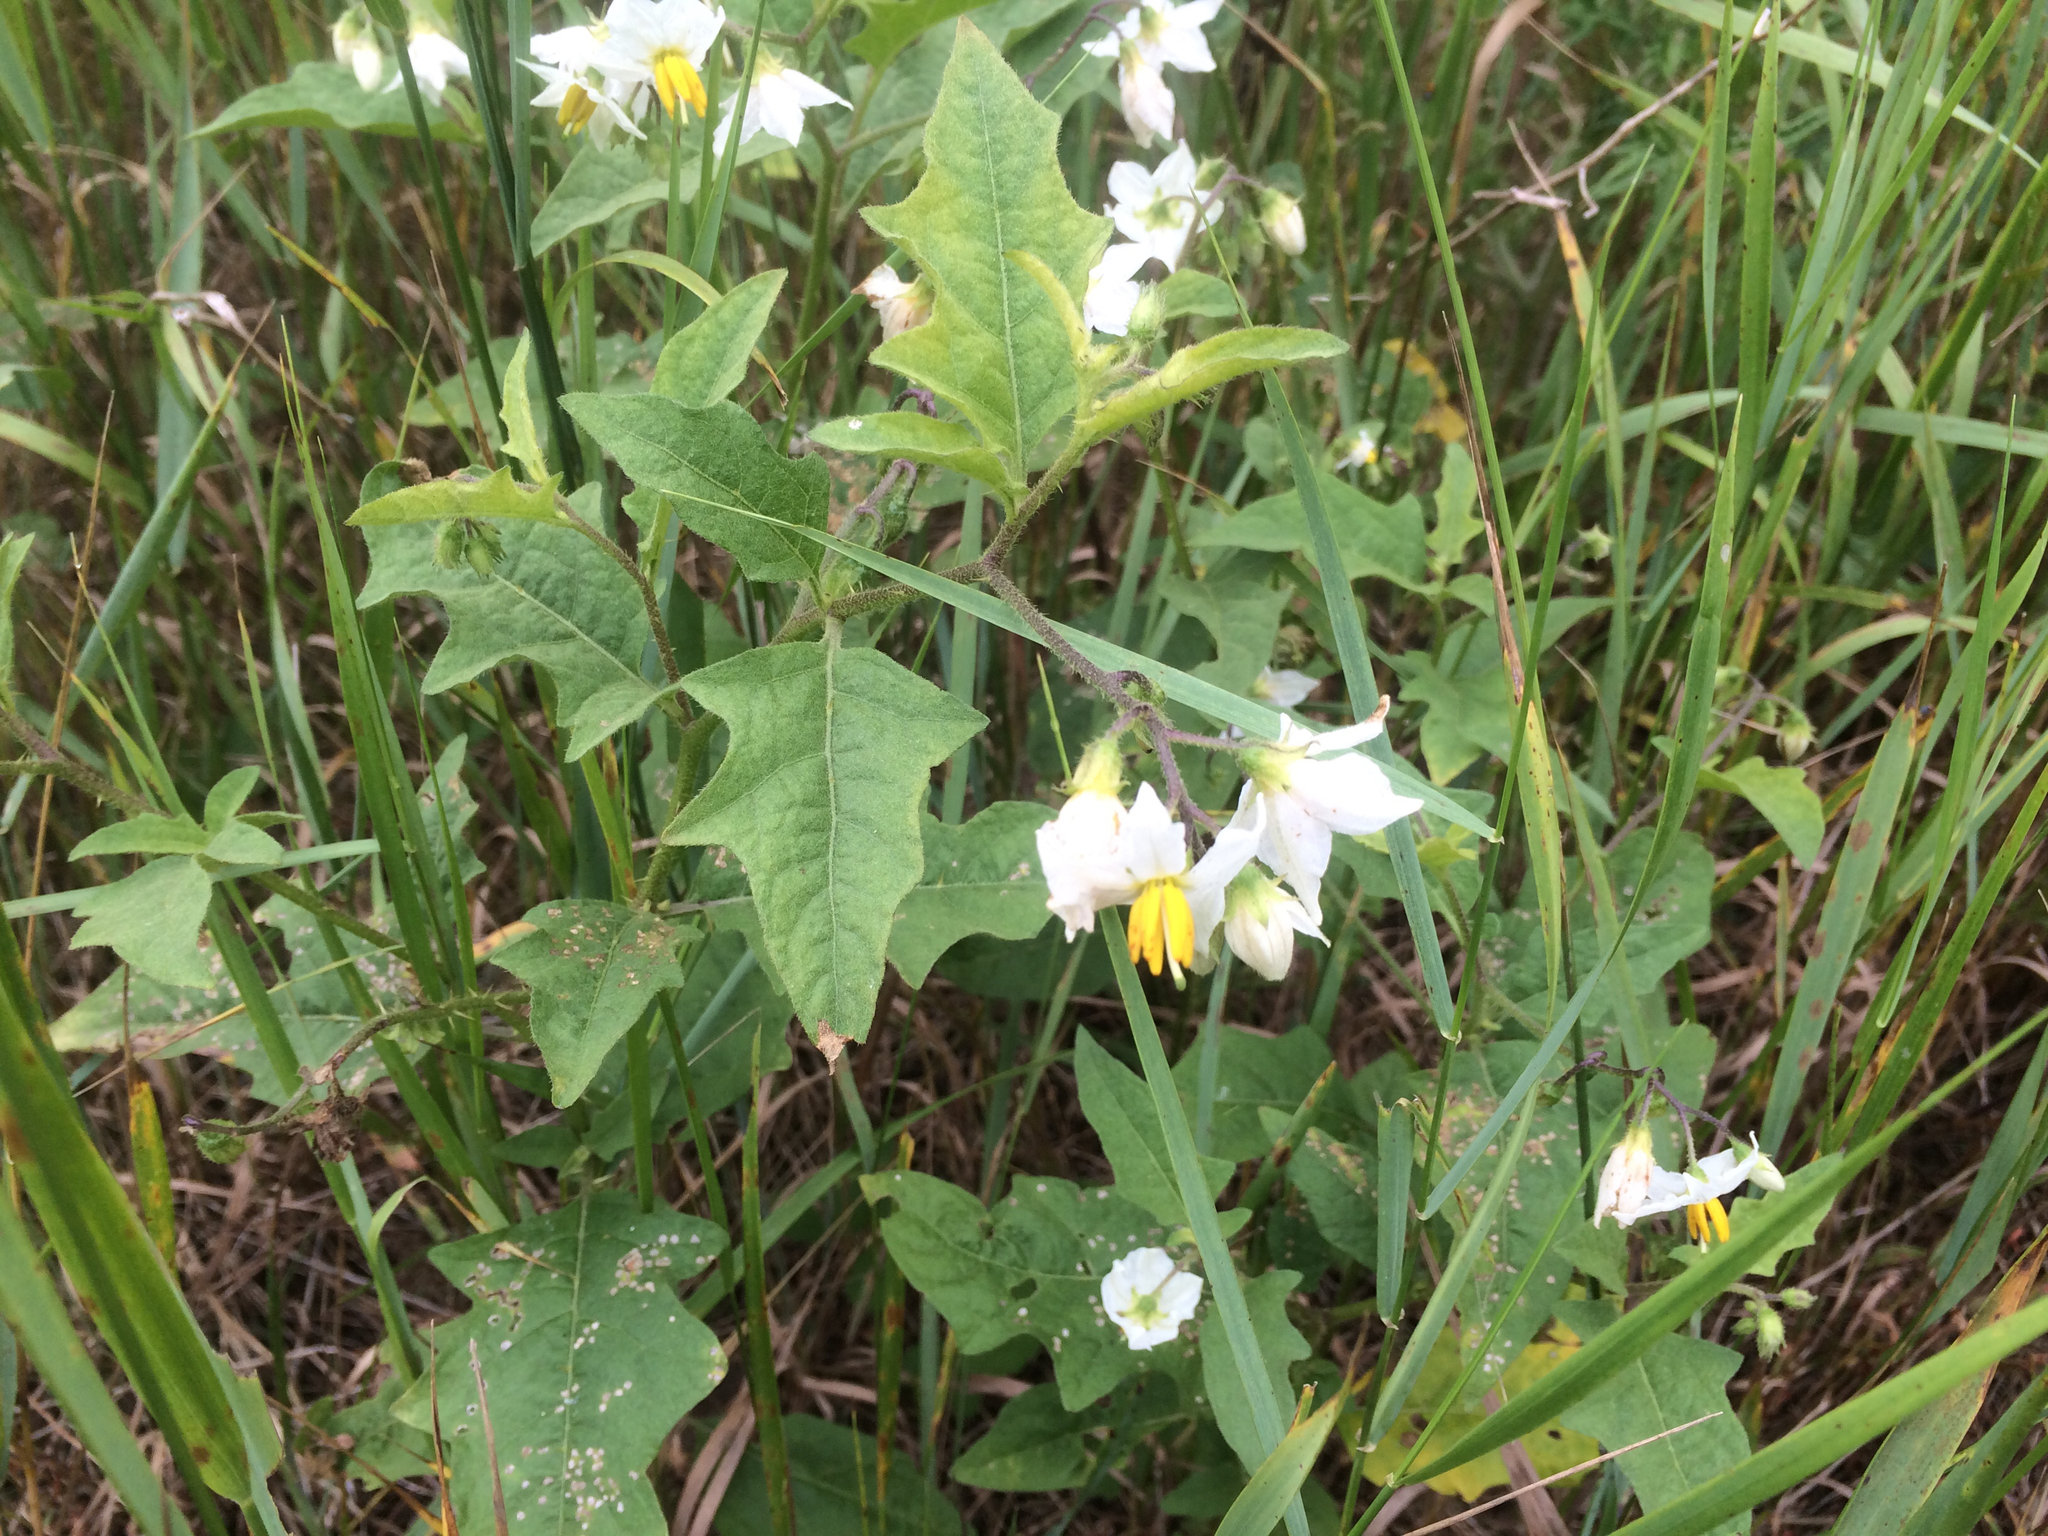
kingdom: Plantae
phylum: Tracheophyta
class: Magnoliopsida
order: Solanales
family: Solanaceae
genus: Solanum
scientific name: Solanum carolinense
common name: Horse-nettle
